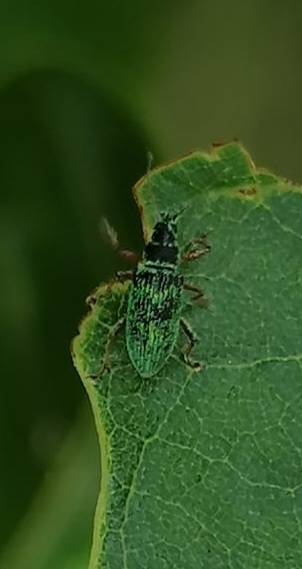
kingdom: Animalia
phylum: Arthropoda
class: Insecta
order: Coleoptera
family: Curculionidae
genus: Polydrusus
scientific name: Polydrusus formosus
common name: Weevil
